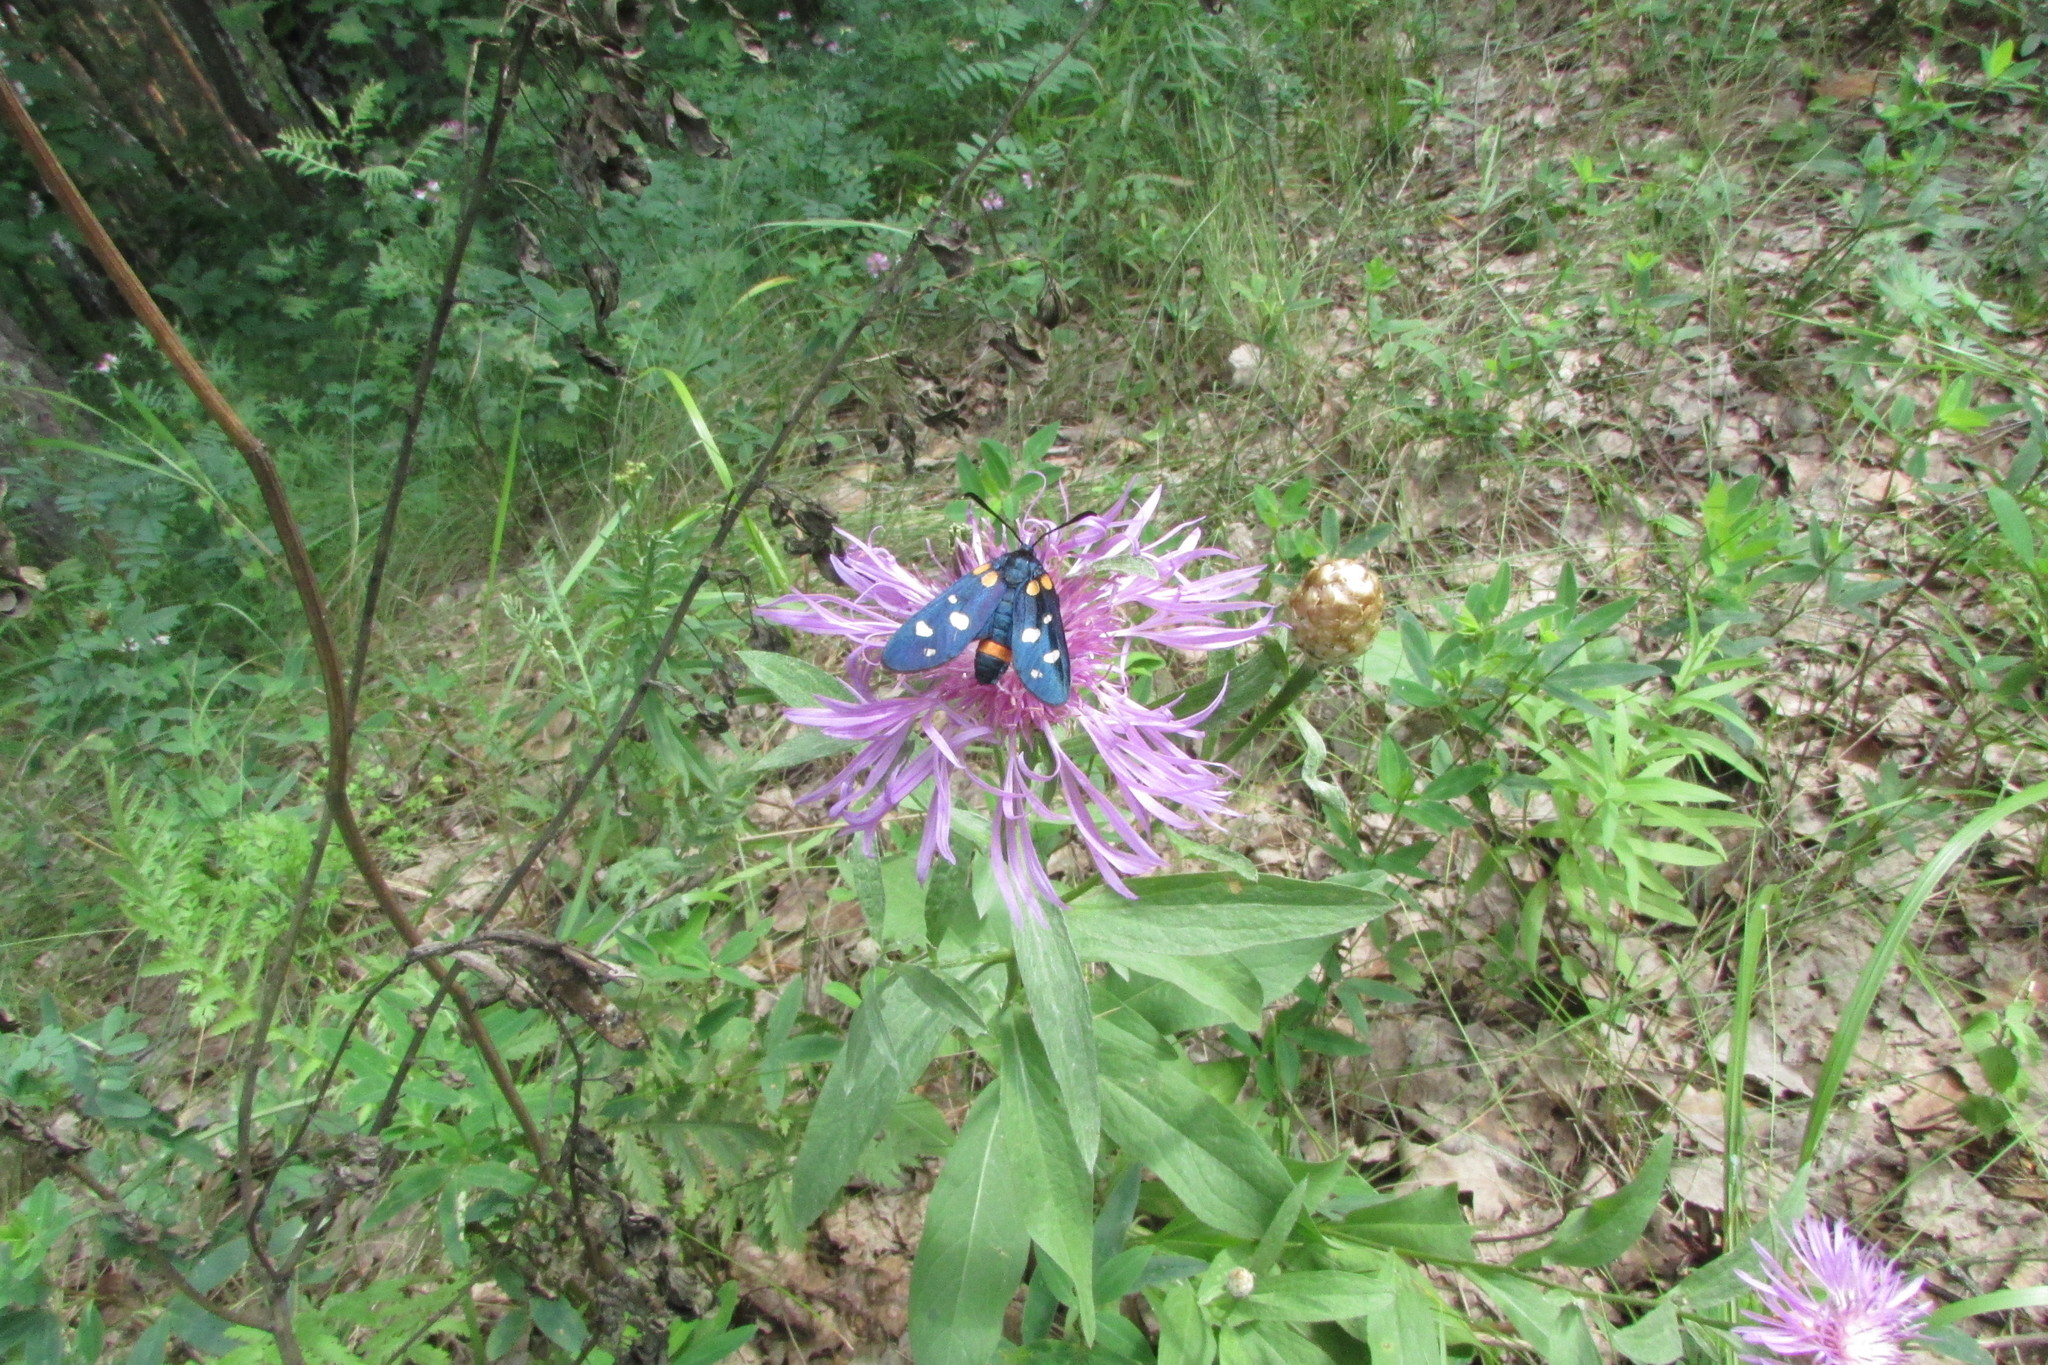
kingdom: Plantae
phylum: Tracheophyta
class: Magnoliopsida
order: Asterales
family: Asteraceae
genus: Centaurea
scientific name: Centaurea jacea
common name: Brown knapweed
